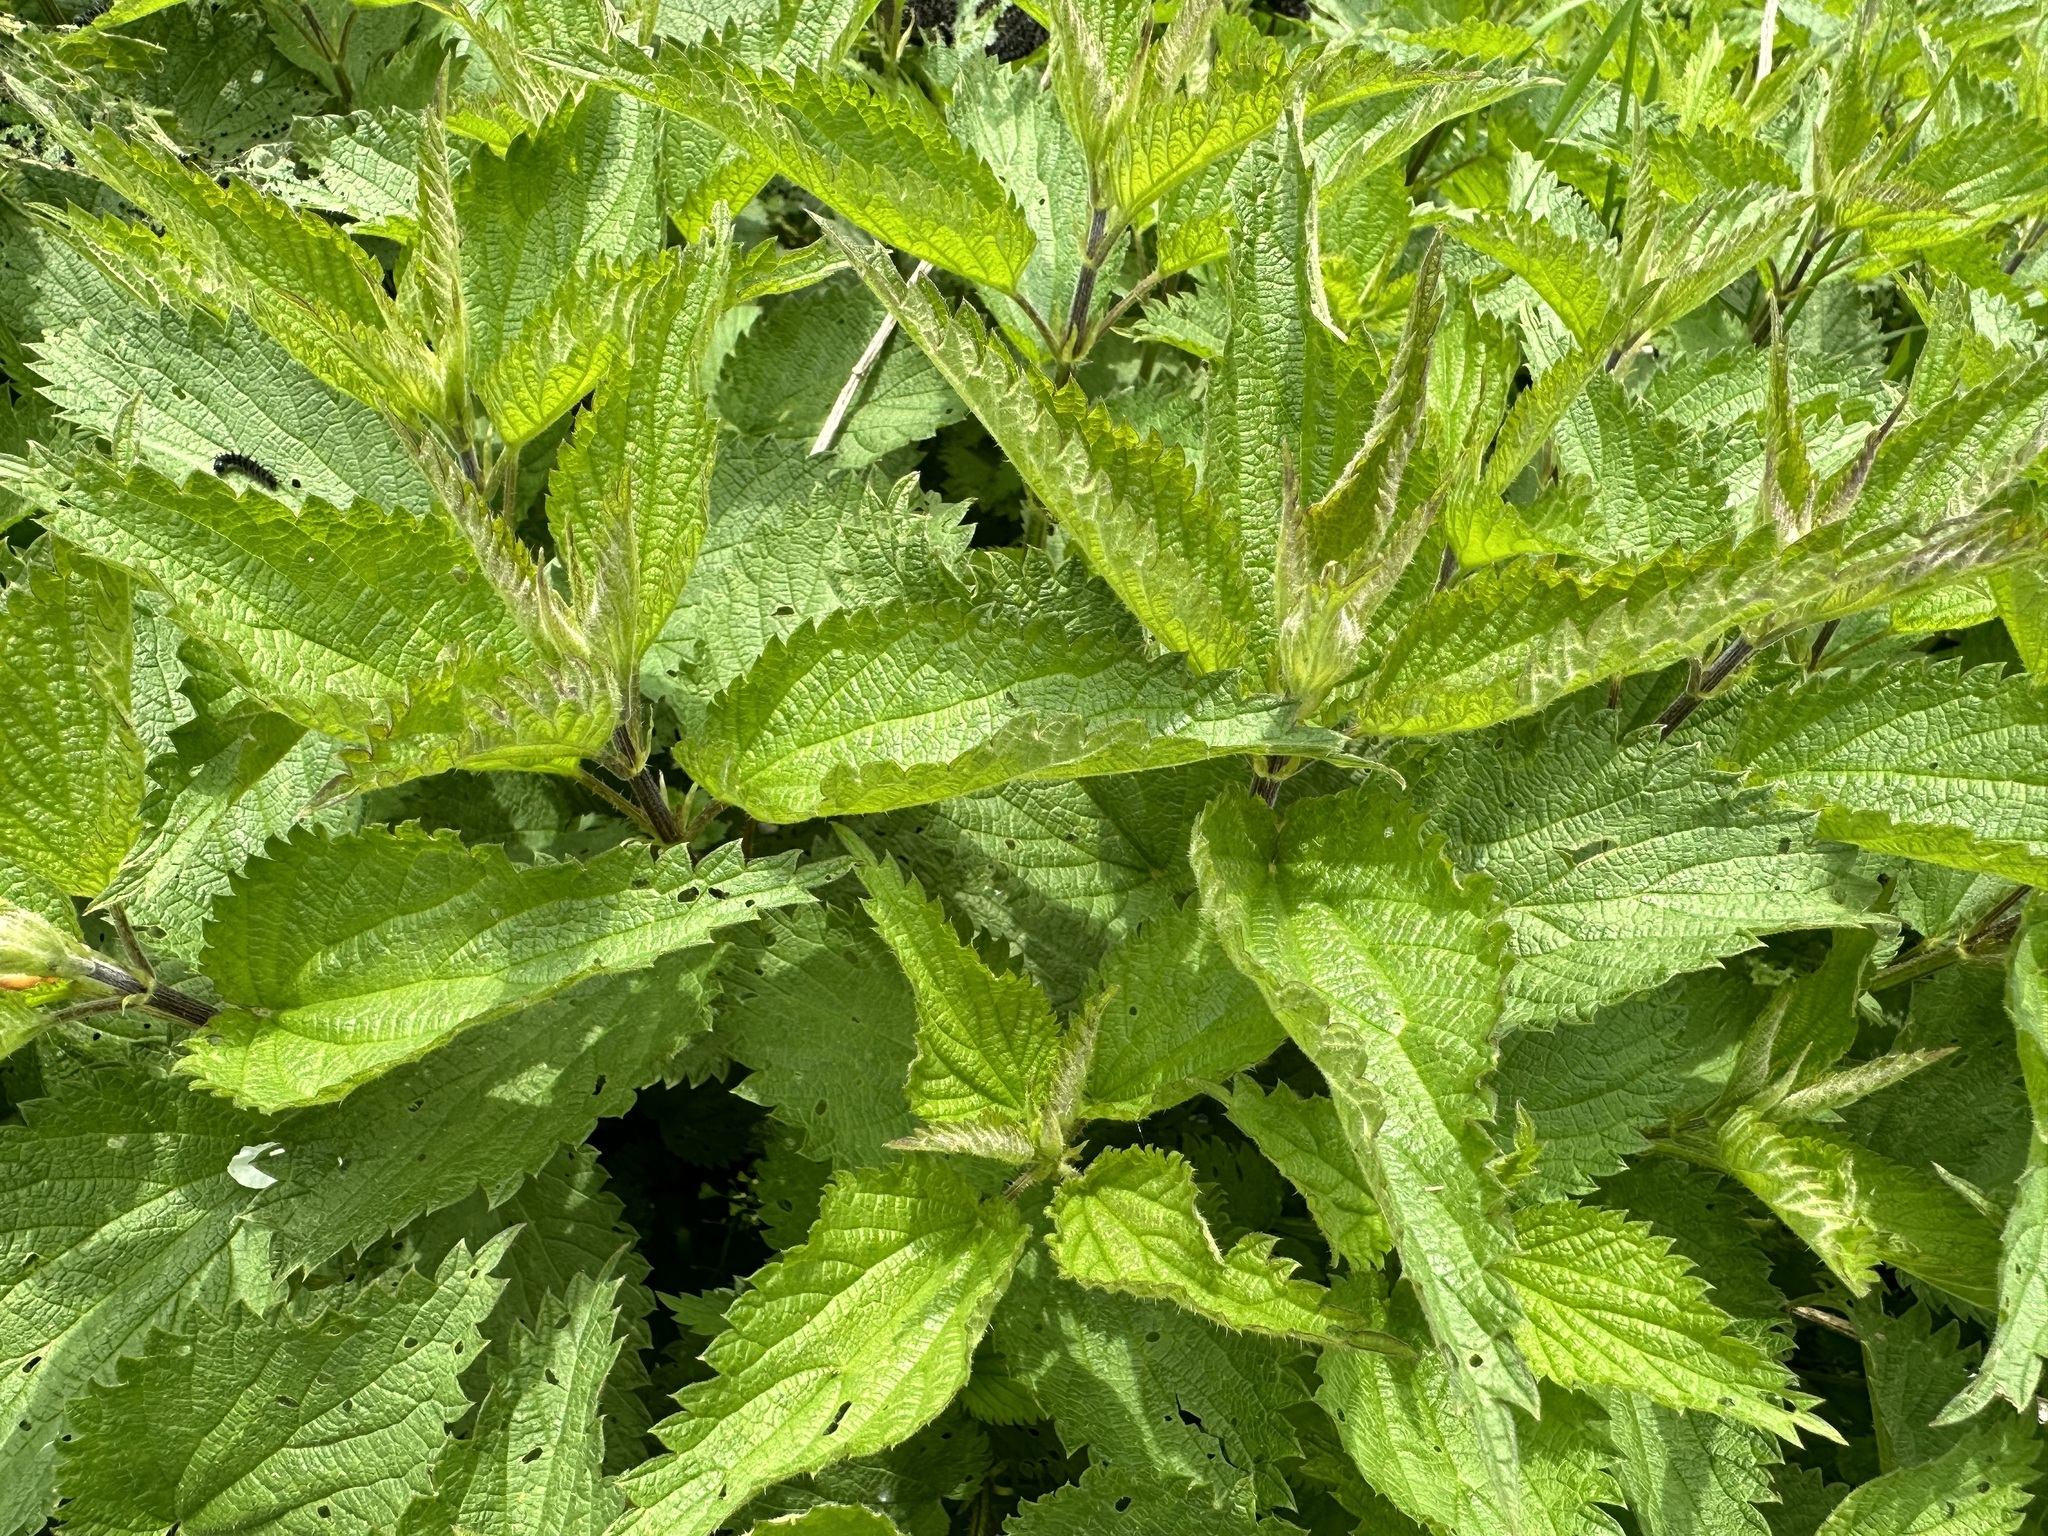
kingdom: Plantae
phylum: Tracheophyta
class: Magnoliopsida
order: Rosales
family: Urticaceae
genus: Urtica
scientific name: Urtica dioica
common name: Common nettle
